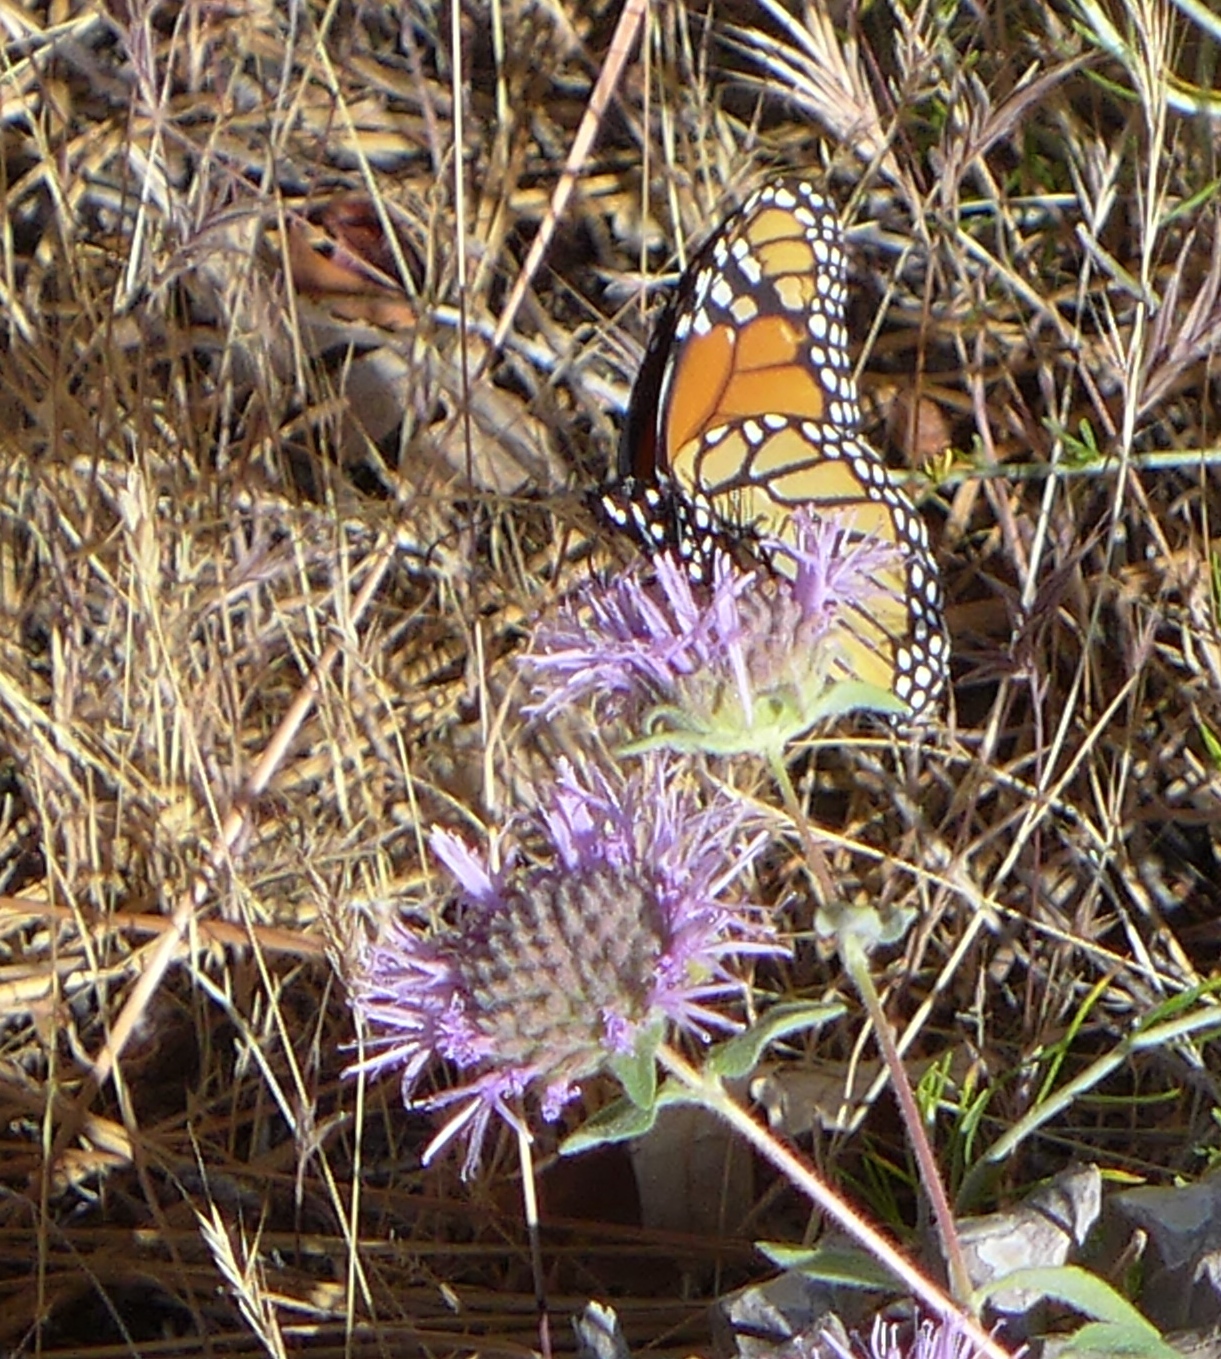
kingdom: Animalia
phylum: Arthropoda
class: Insecta
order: Lepidoptera
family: Nymphalidae
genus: Danaus
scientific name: Danaus plexippus
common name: Monarch
